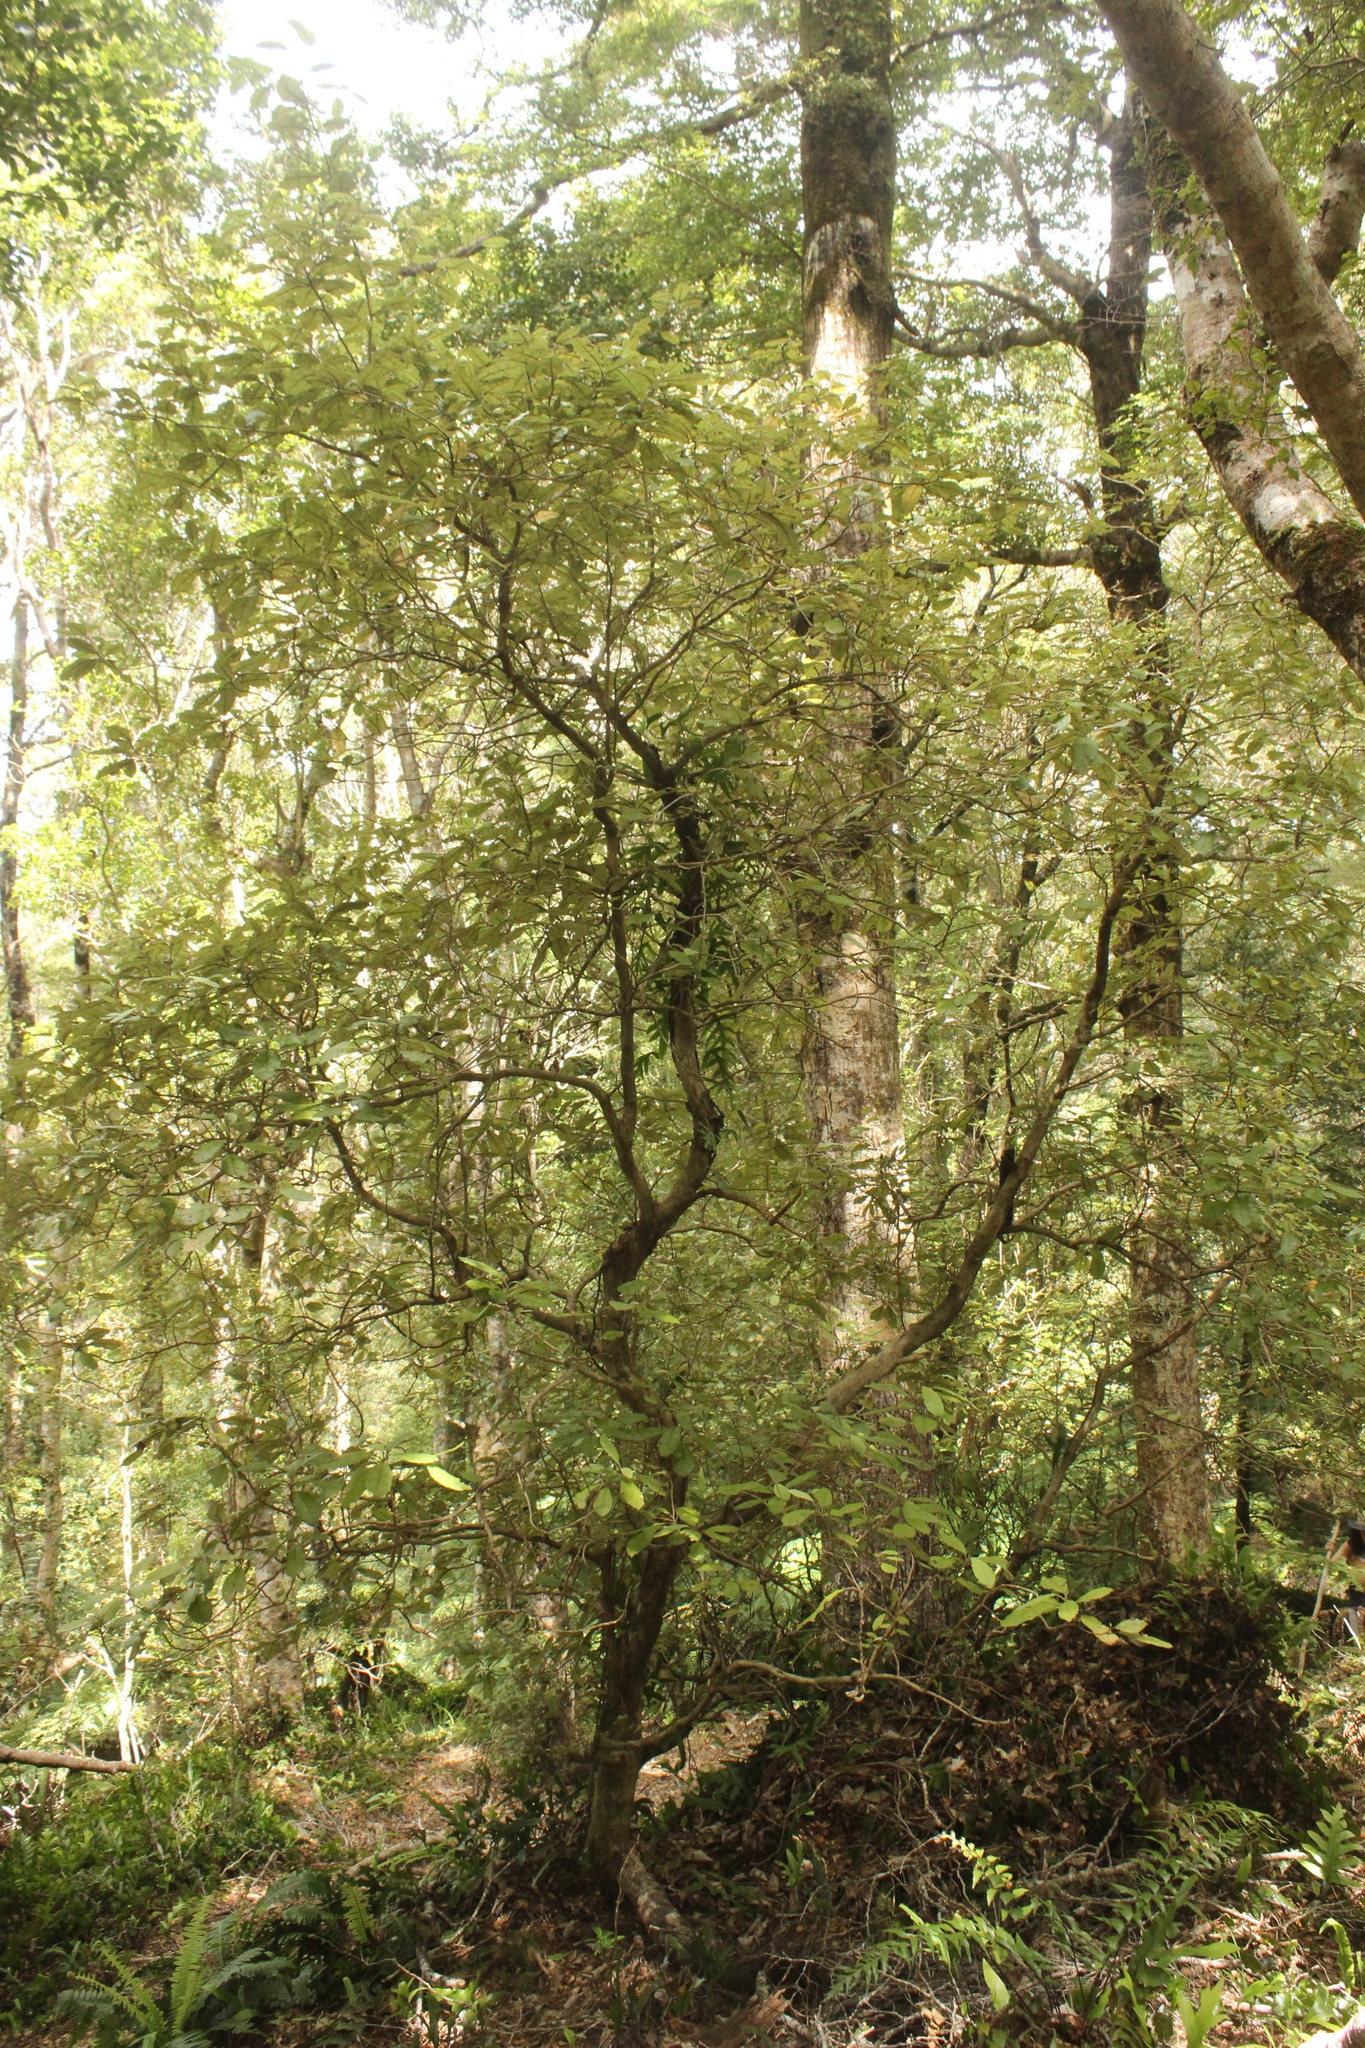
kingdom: Plantae
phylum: Tracheophyta
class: Magnoliopsida
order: Asterales
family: Asteraceae
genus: Olearia
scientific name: Olearia rani
